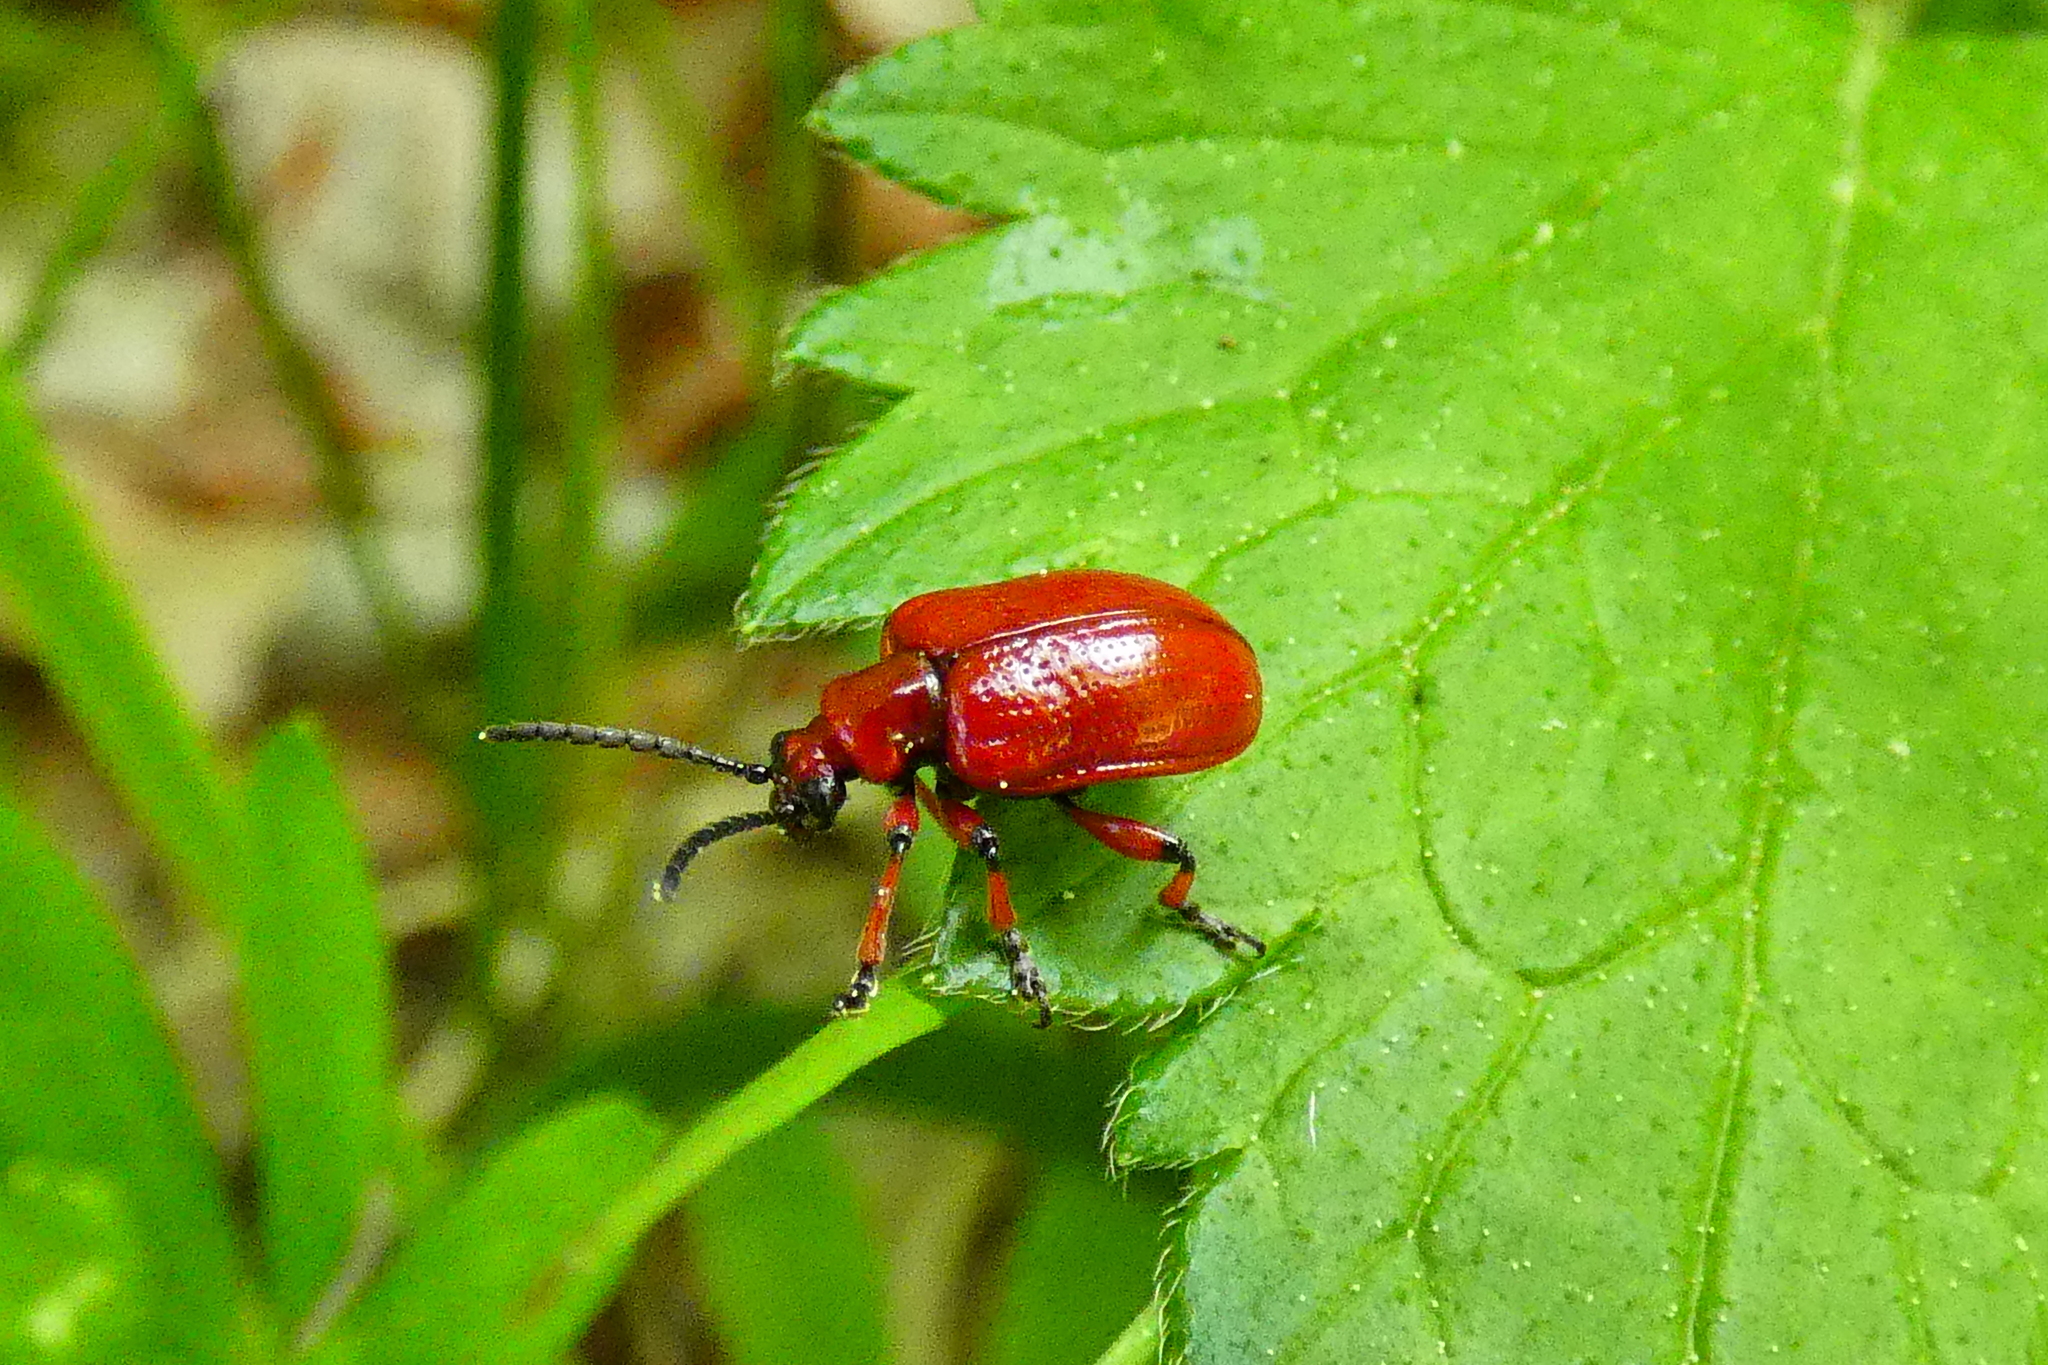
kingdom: Animalia
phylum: Arthropoda
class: Insecta
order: Coleoptera
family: Chrysomelidae
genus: Lilioceris
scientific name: Lilioceris merdigera
